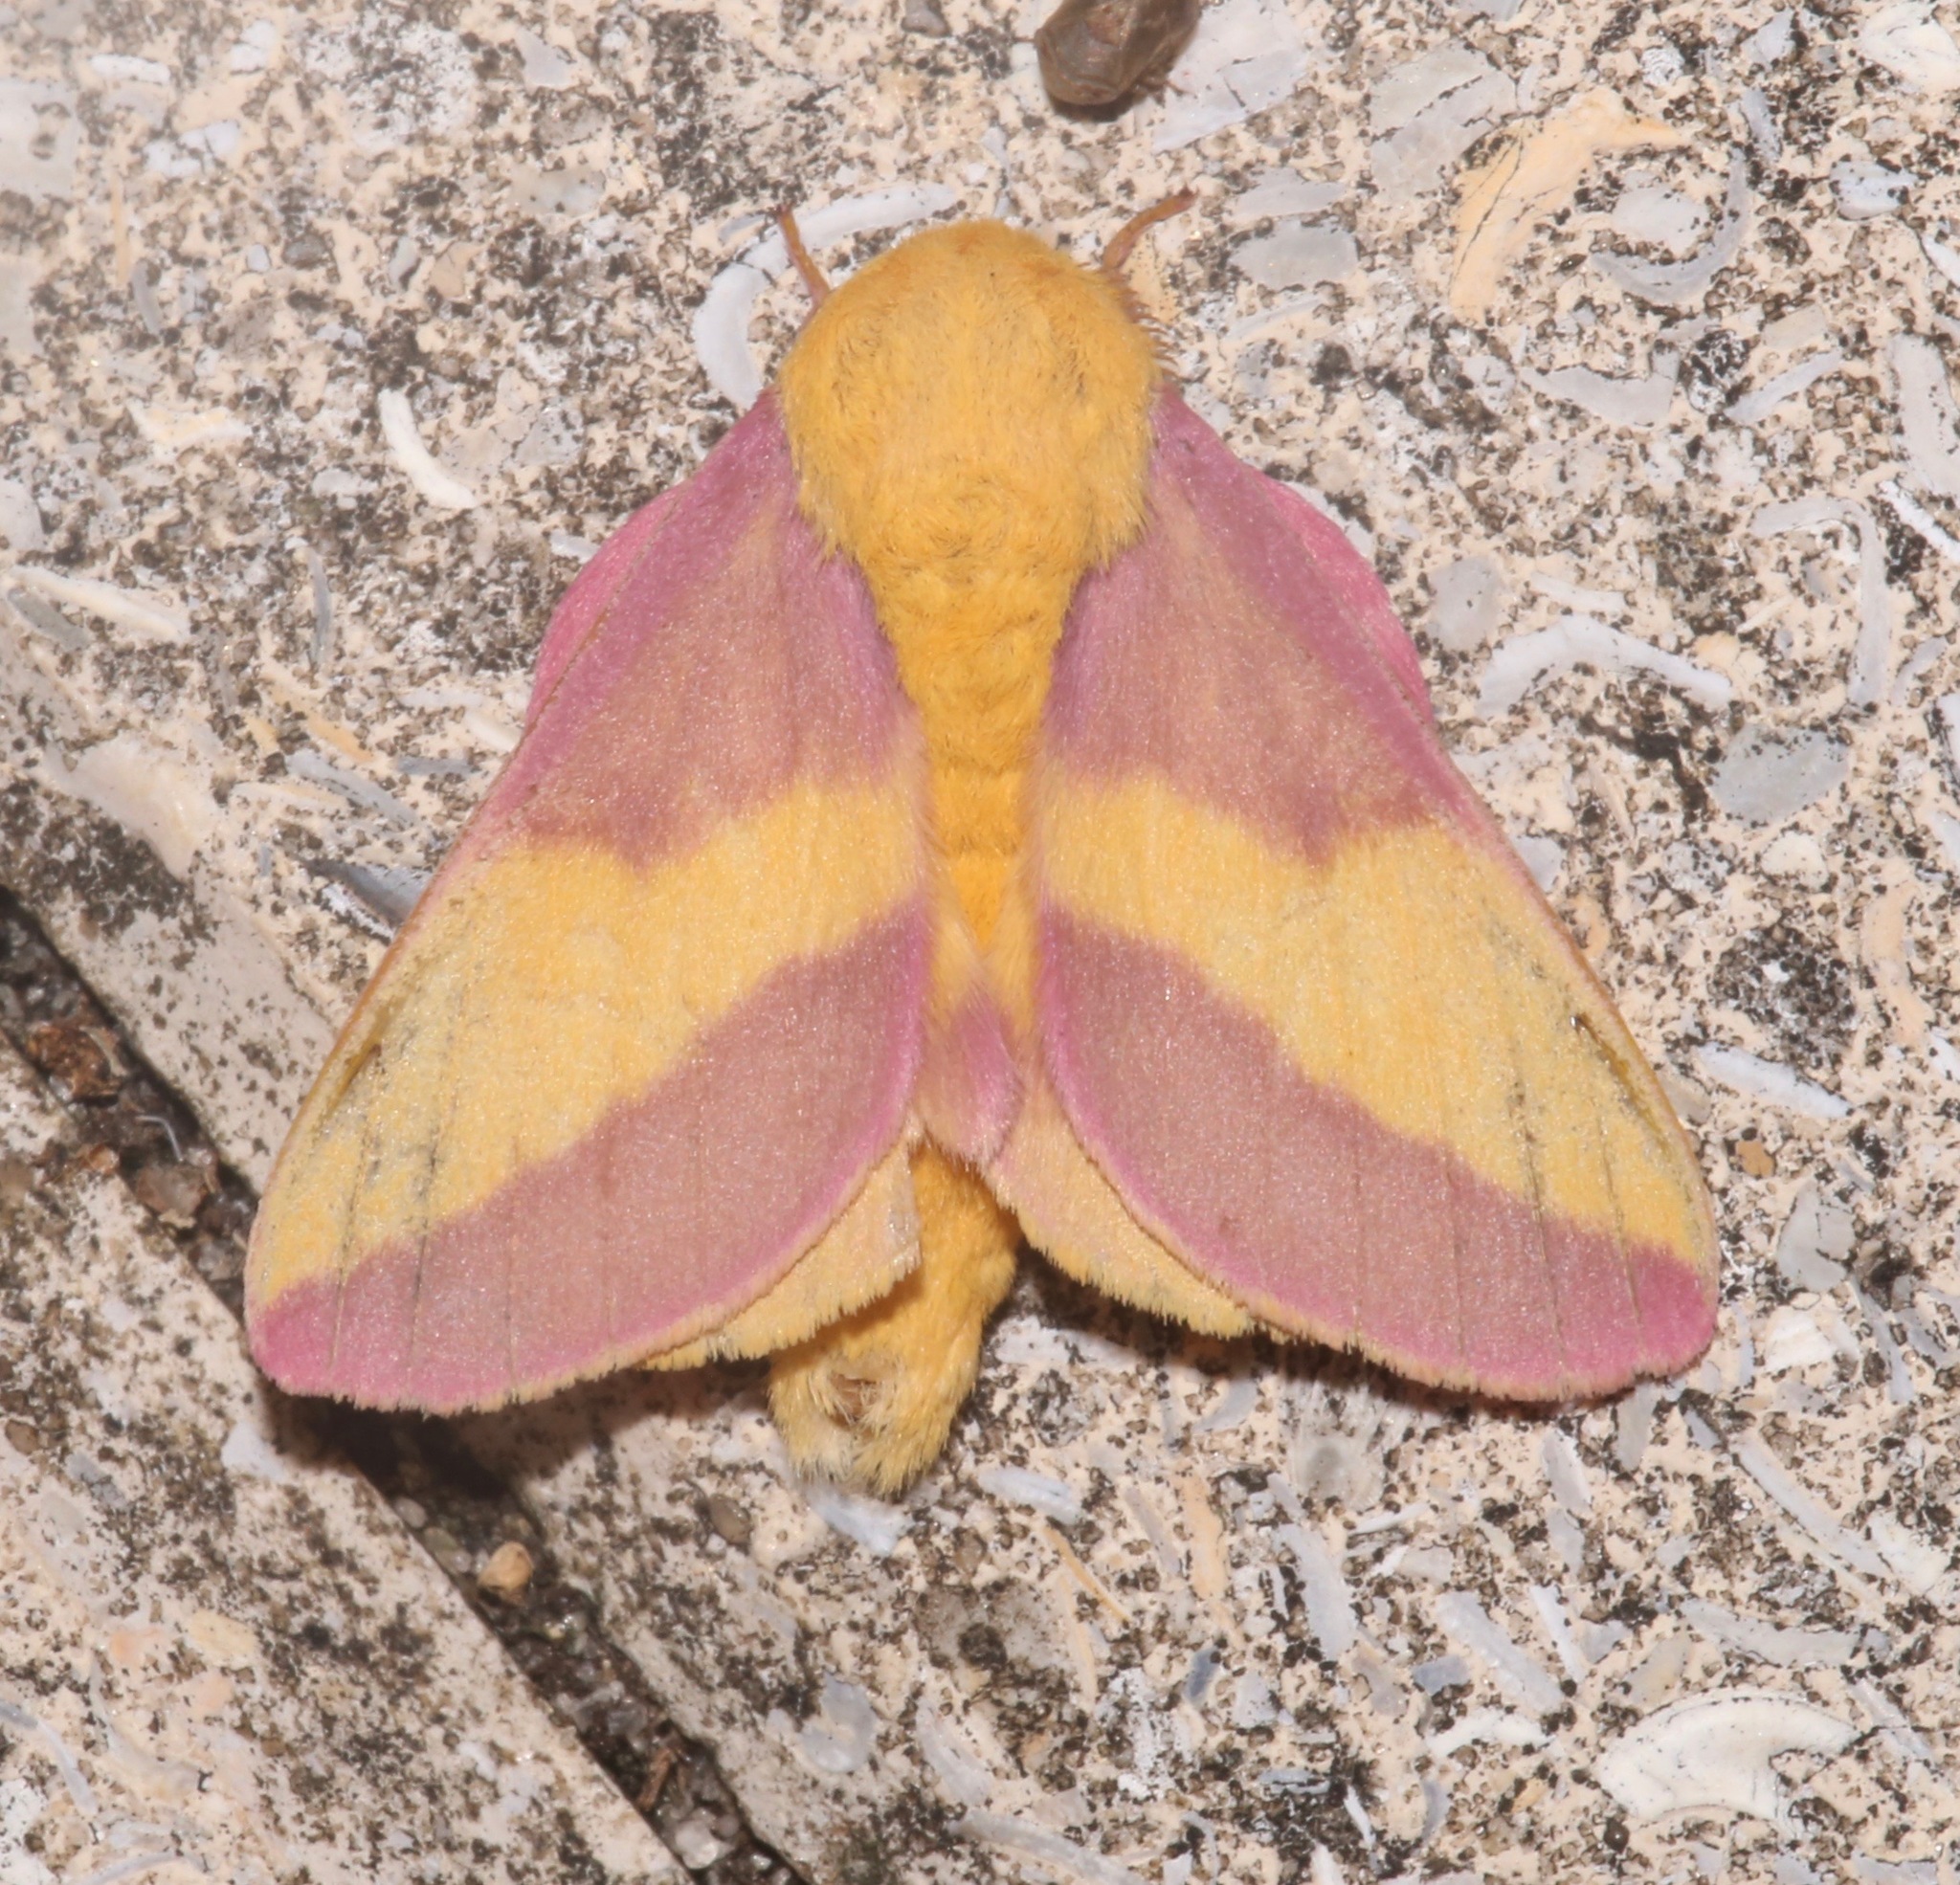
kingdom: Animalia
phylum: Arthropoda
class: Insecta
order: Lepidoptera
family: Saturniidae
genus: Dryocampa
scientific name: Dryocampa rubicunda
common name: Rosy maple moth
